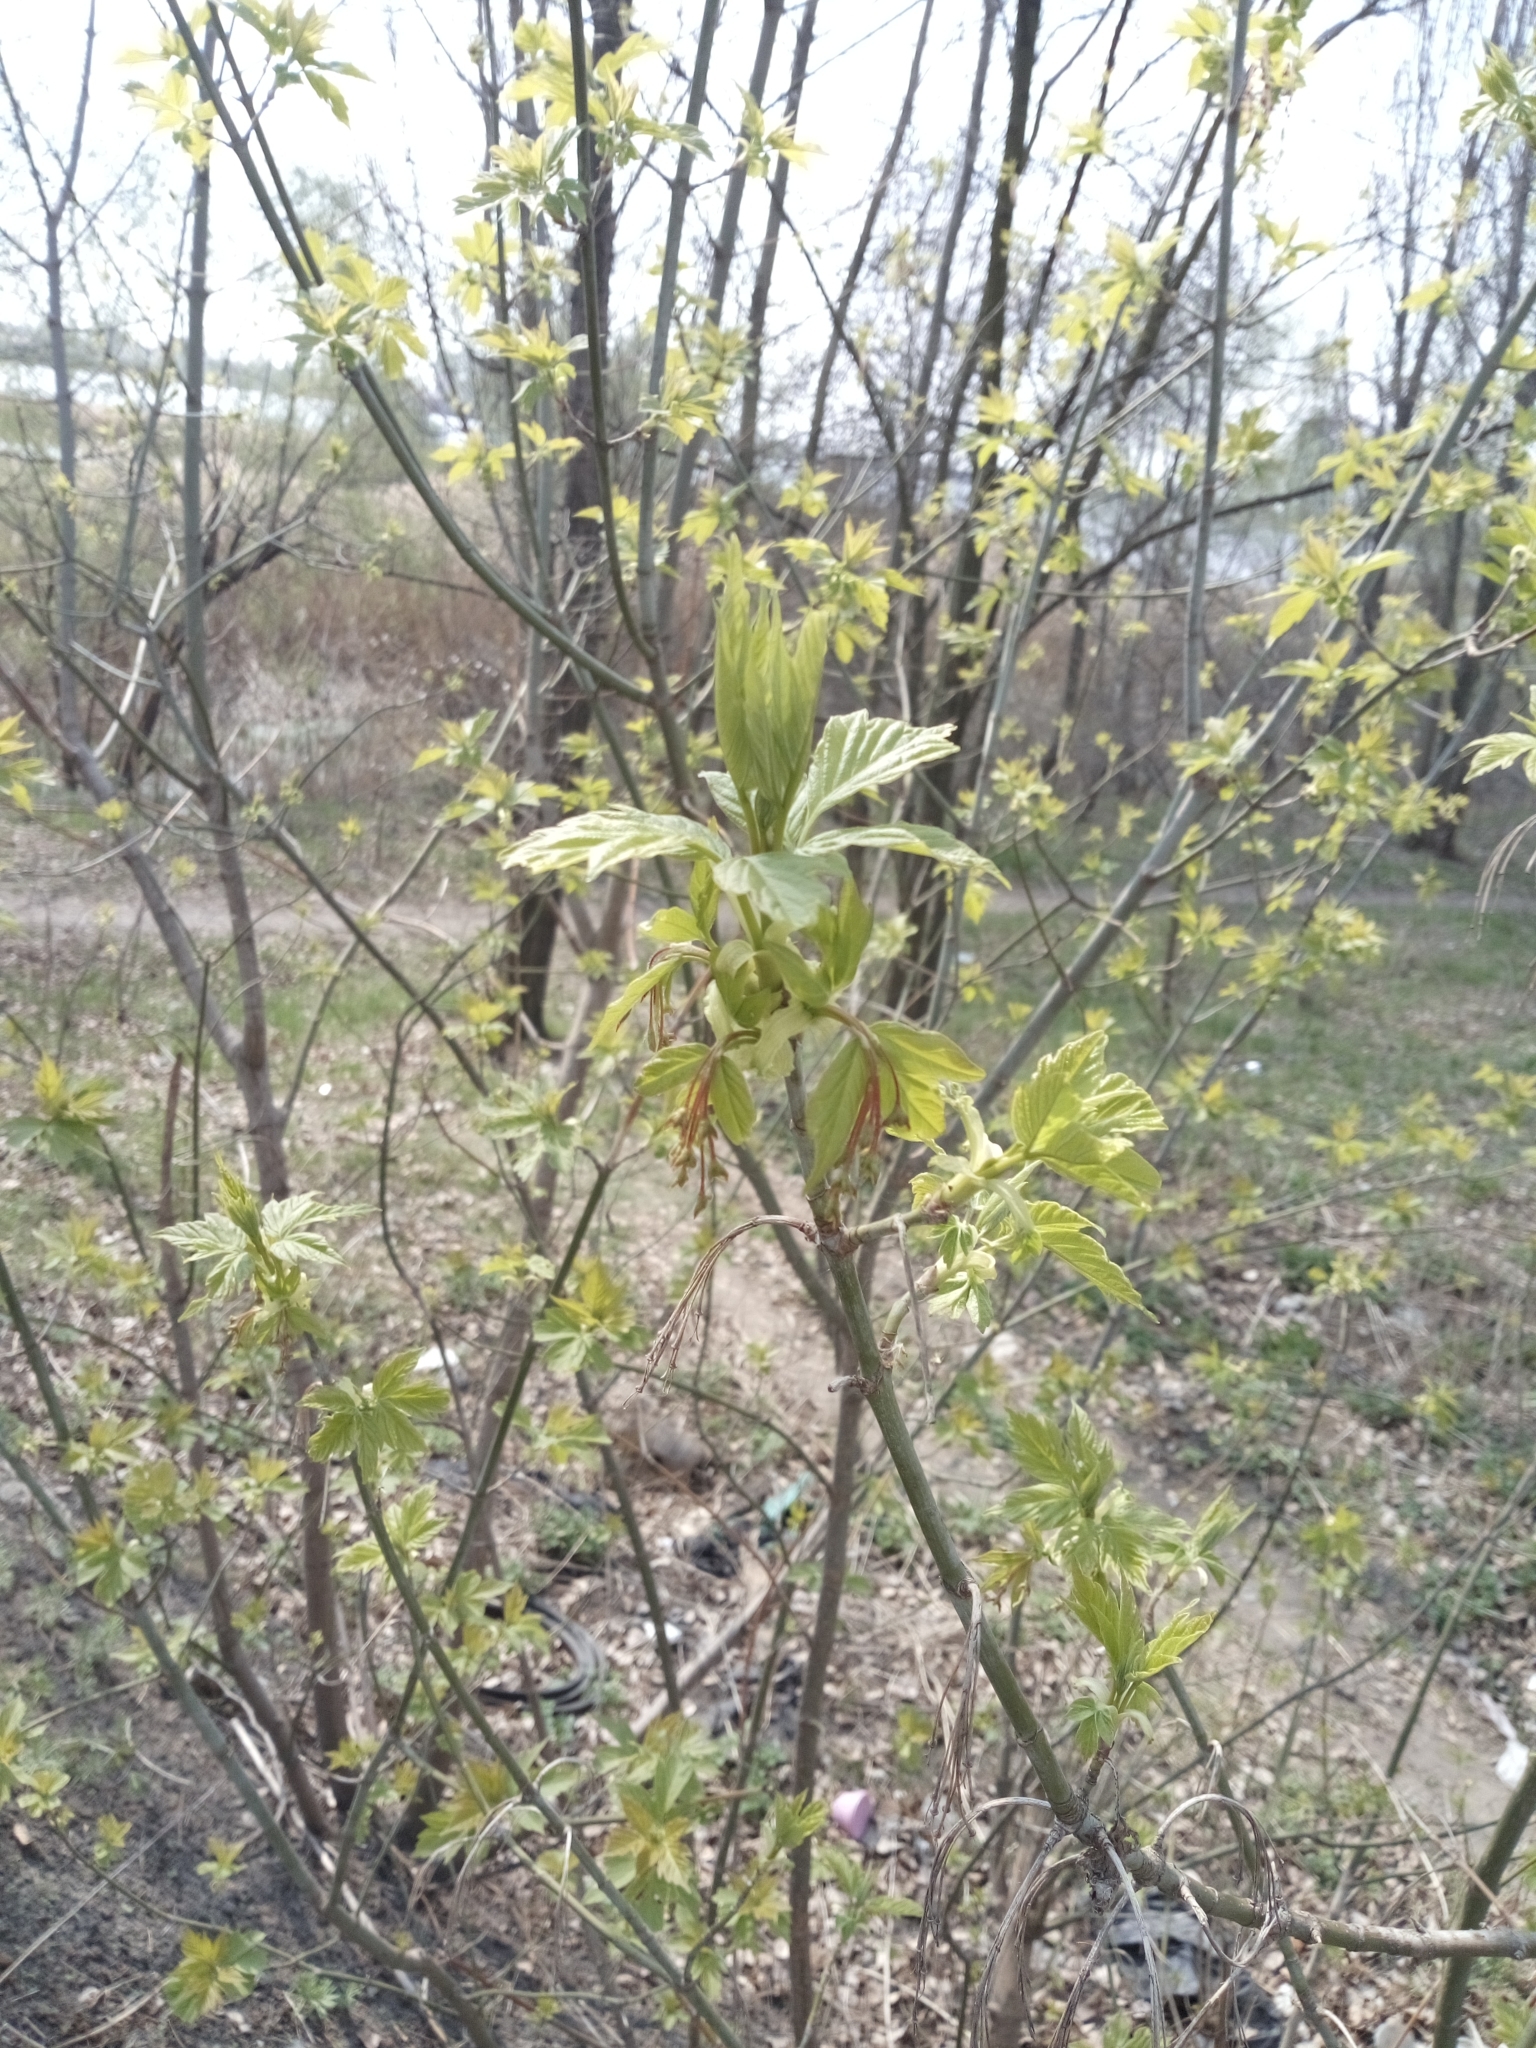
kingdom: Plantae
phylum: Tracheophyta
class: Magnoliopsida
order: Sapindales
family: Sapindaceae
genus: Acer
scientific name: Acer negundo
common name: Ashleaf maple
